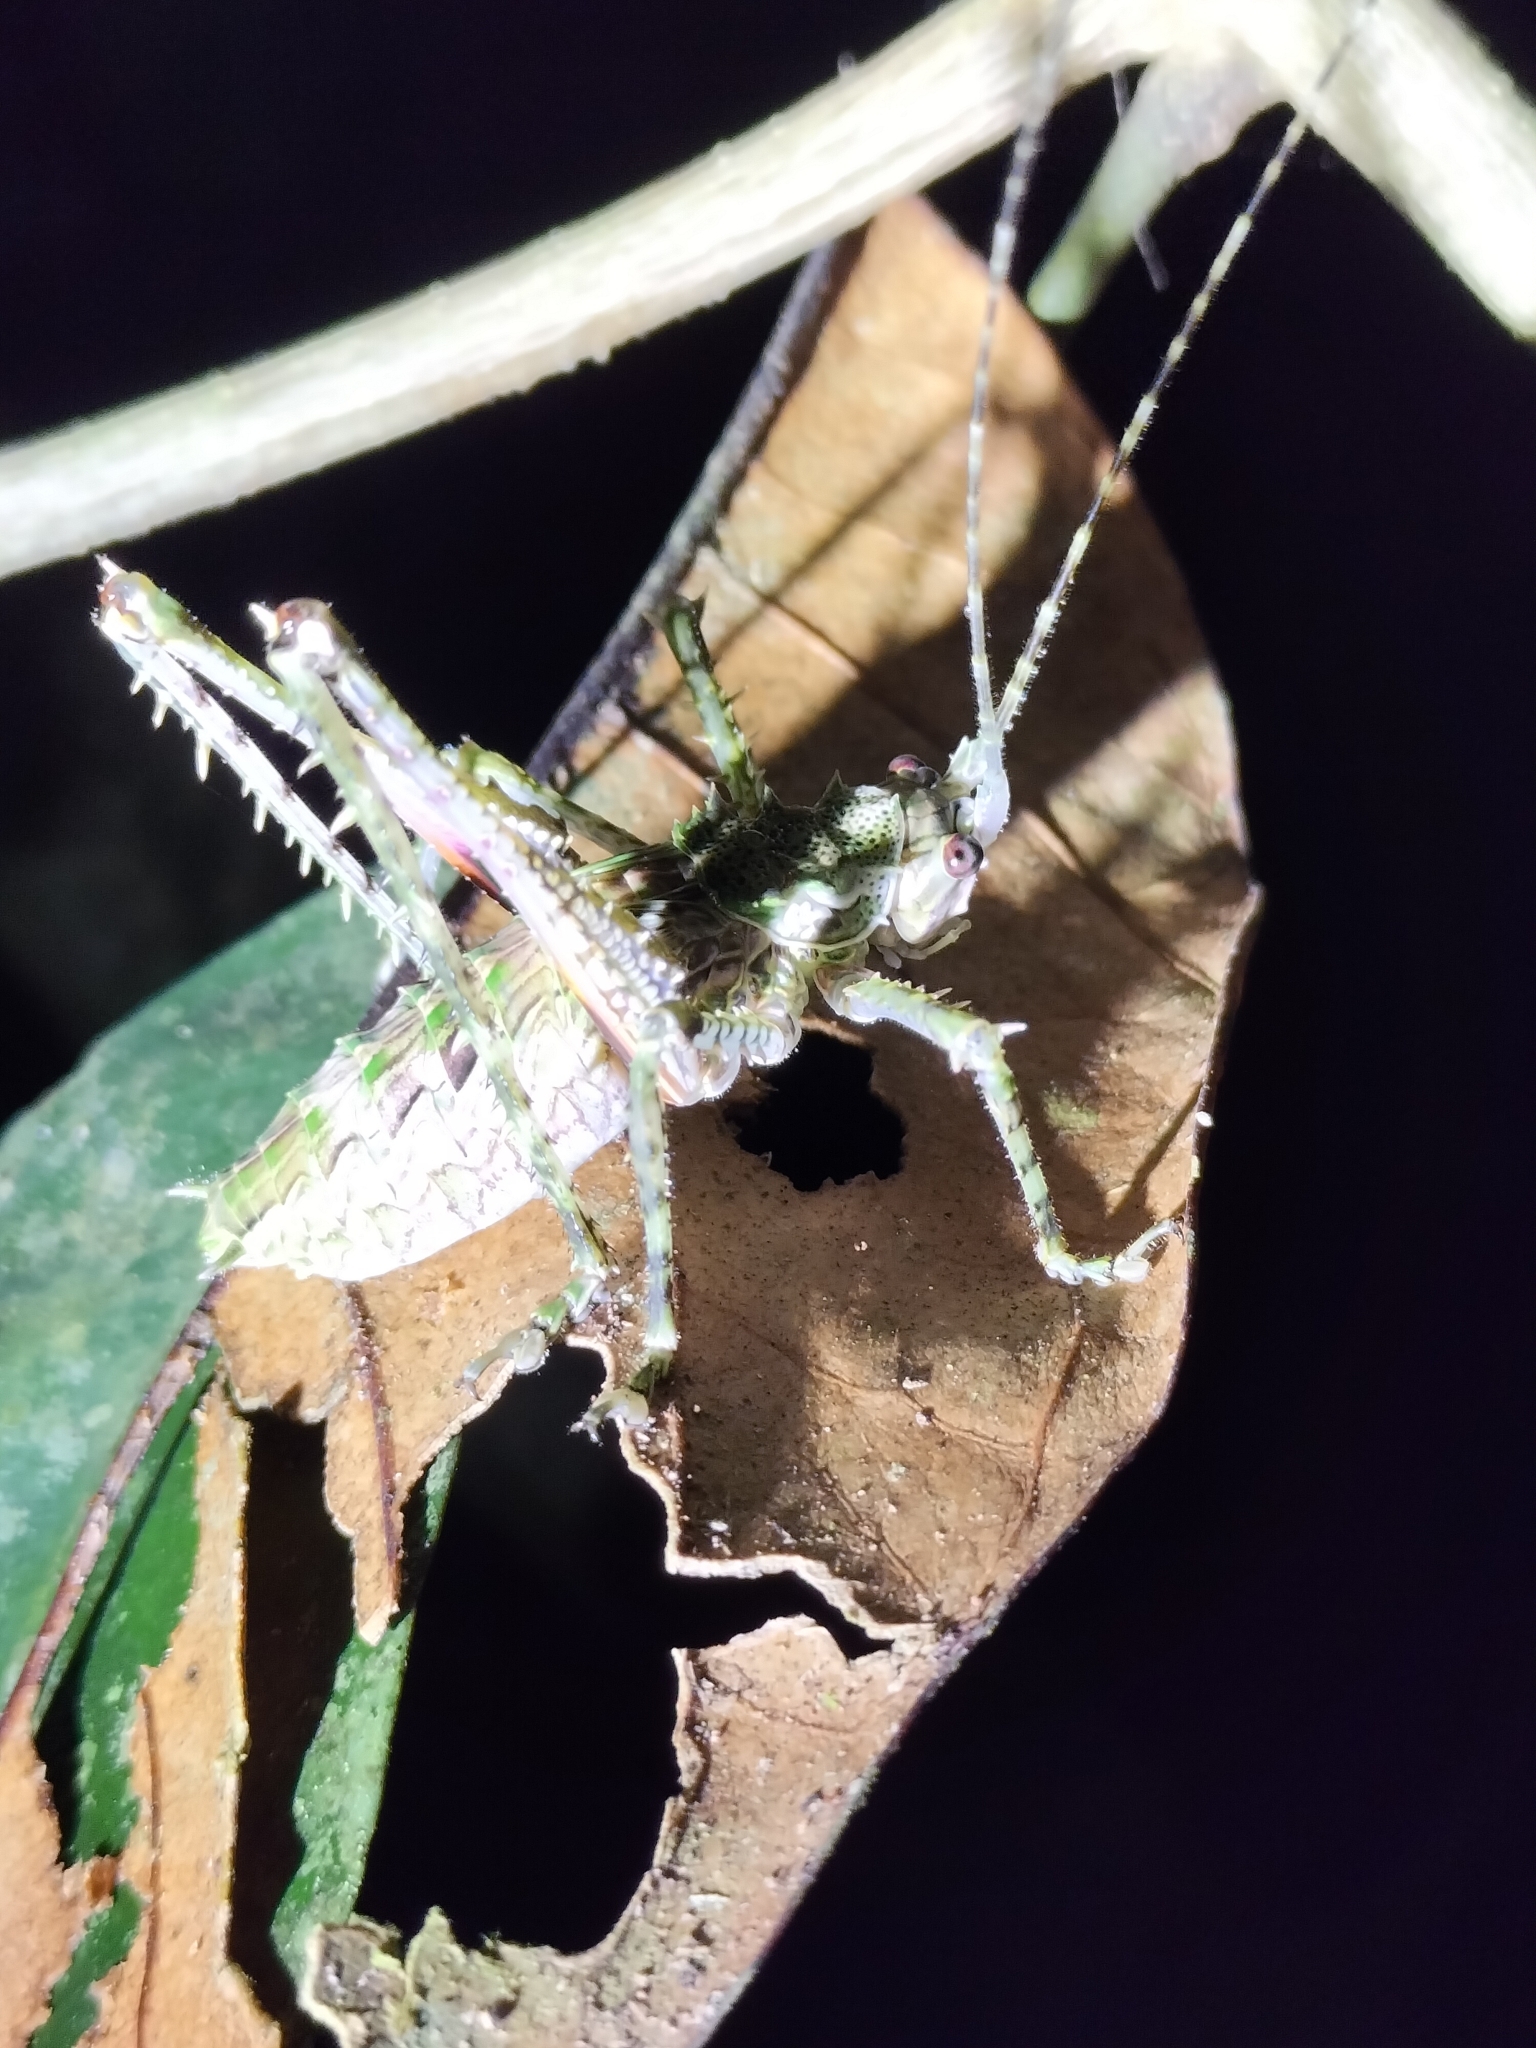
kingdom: Animalia
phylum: Arthropoda
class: Insecta
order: Orthoptera
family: Tettigoniidae
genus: Phricta
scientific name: Phricta spinosa
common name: Giant spiny forest katydid
